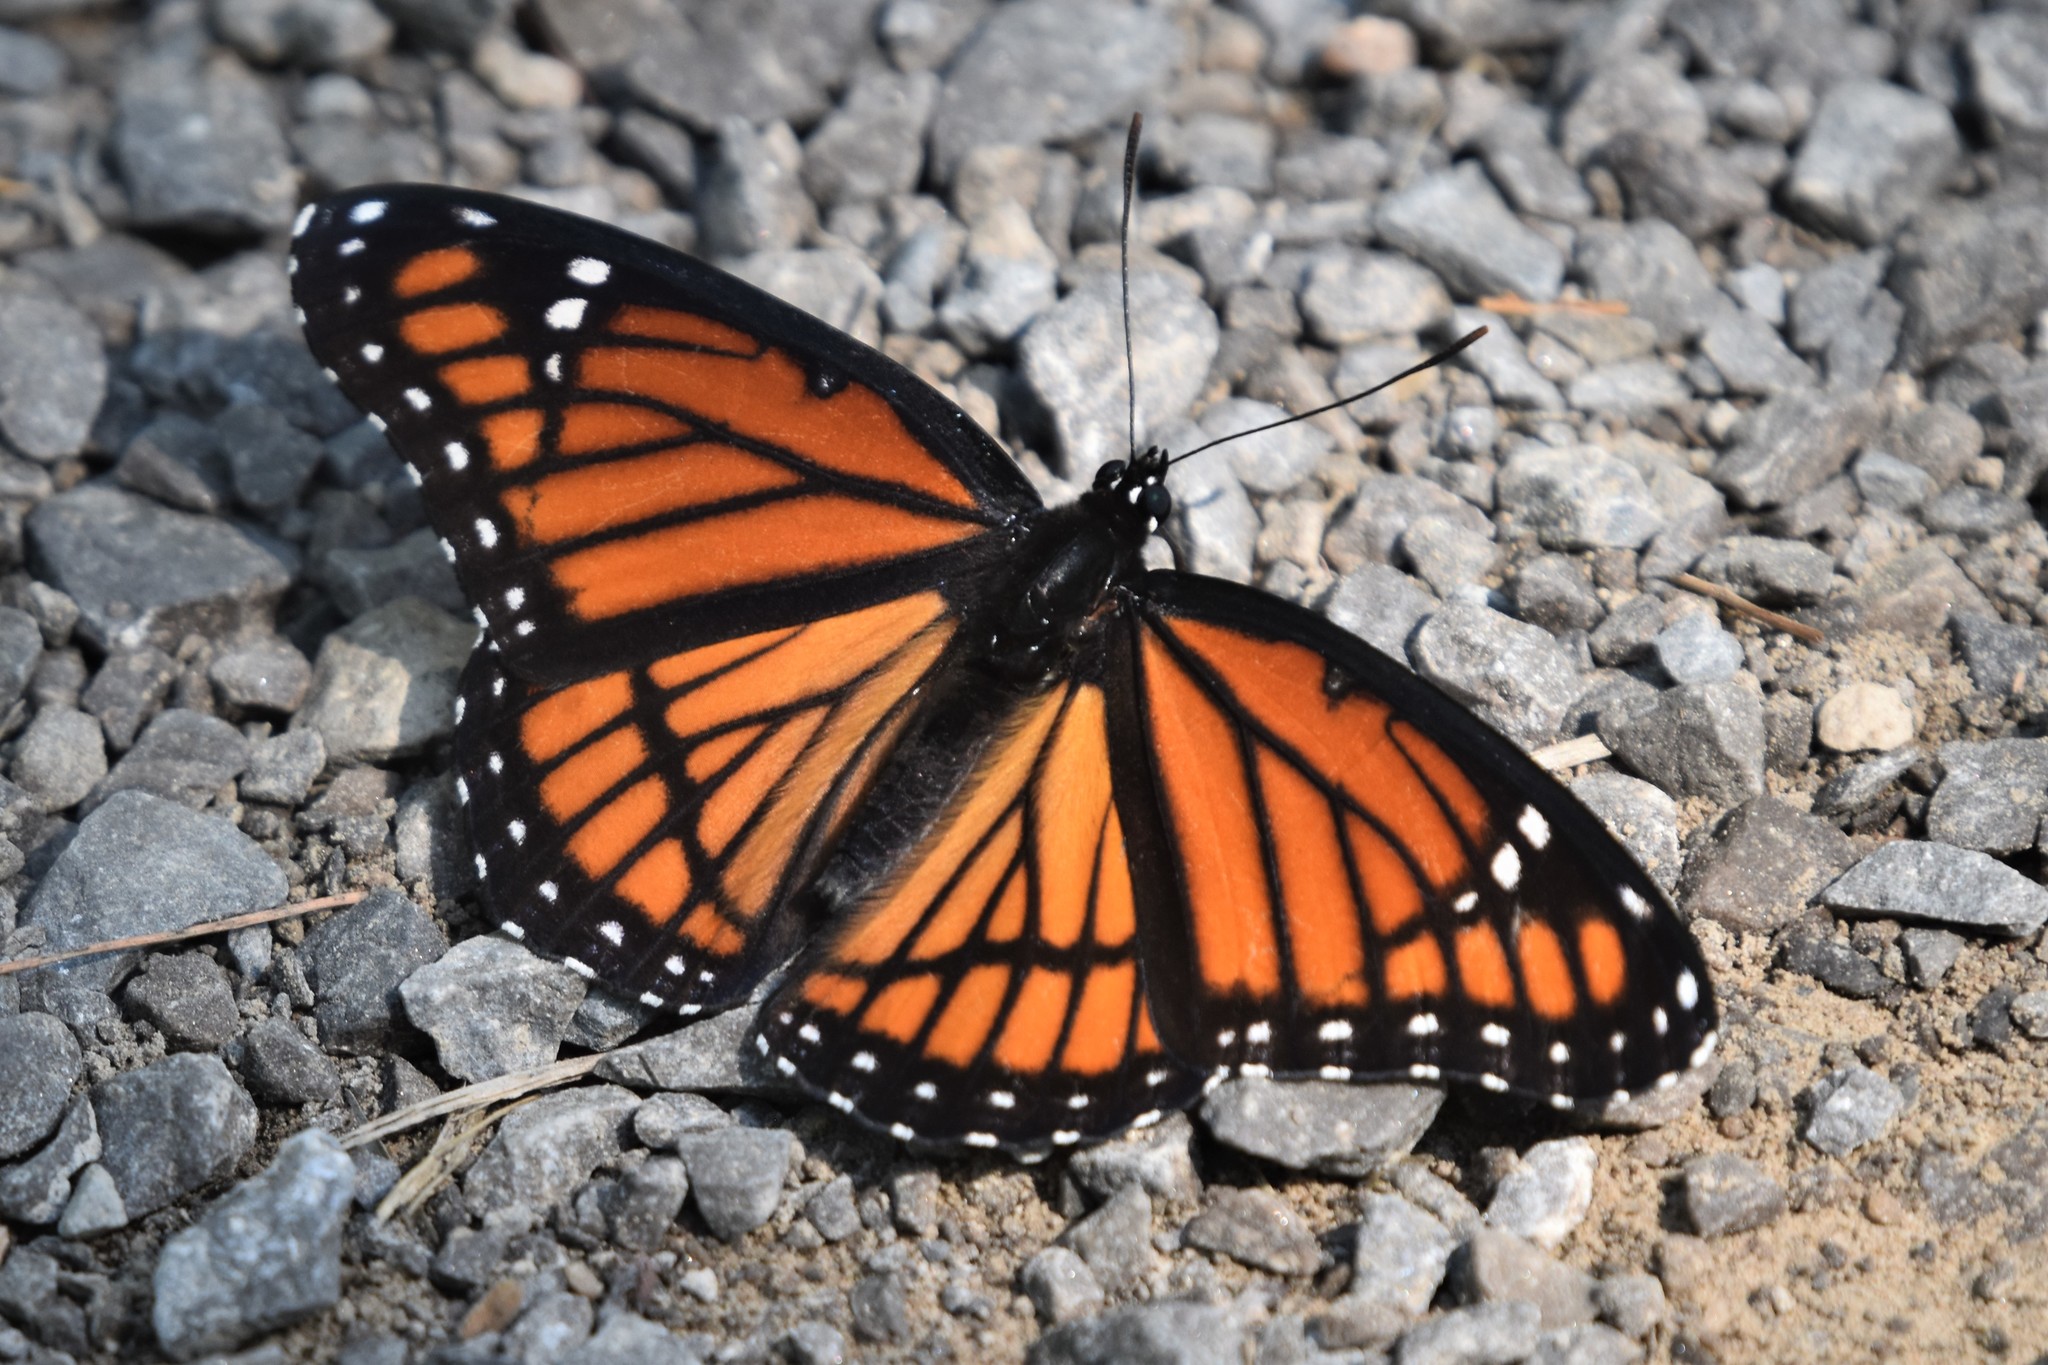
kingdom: Animalia
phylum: Arthropoda
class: Insecta
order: Lepidoptera
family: Nymphalidae
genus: Limenitis
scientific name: Limenitis archippus
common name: Viceroy
